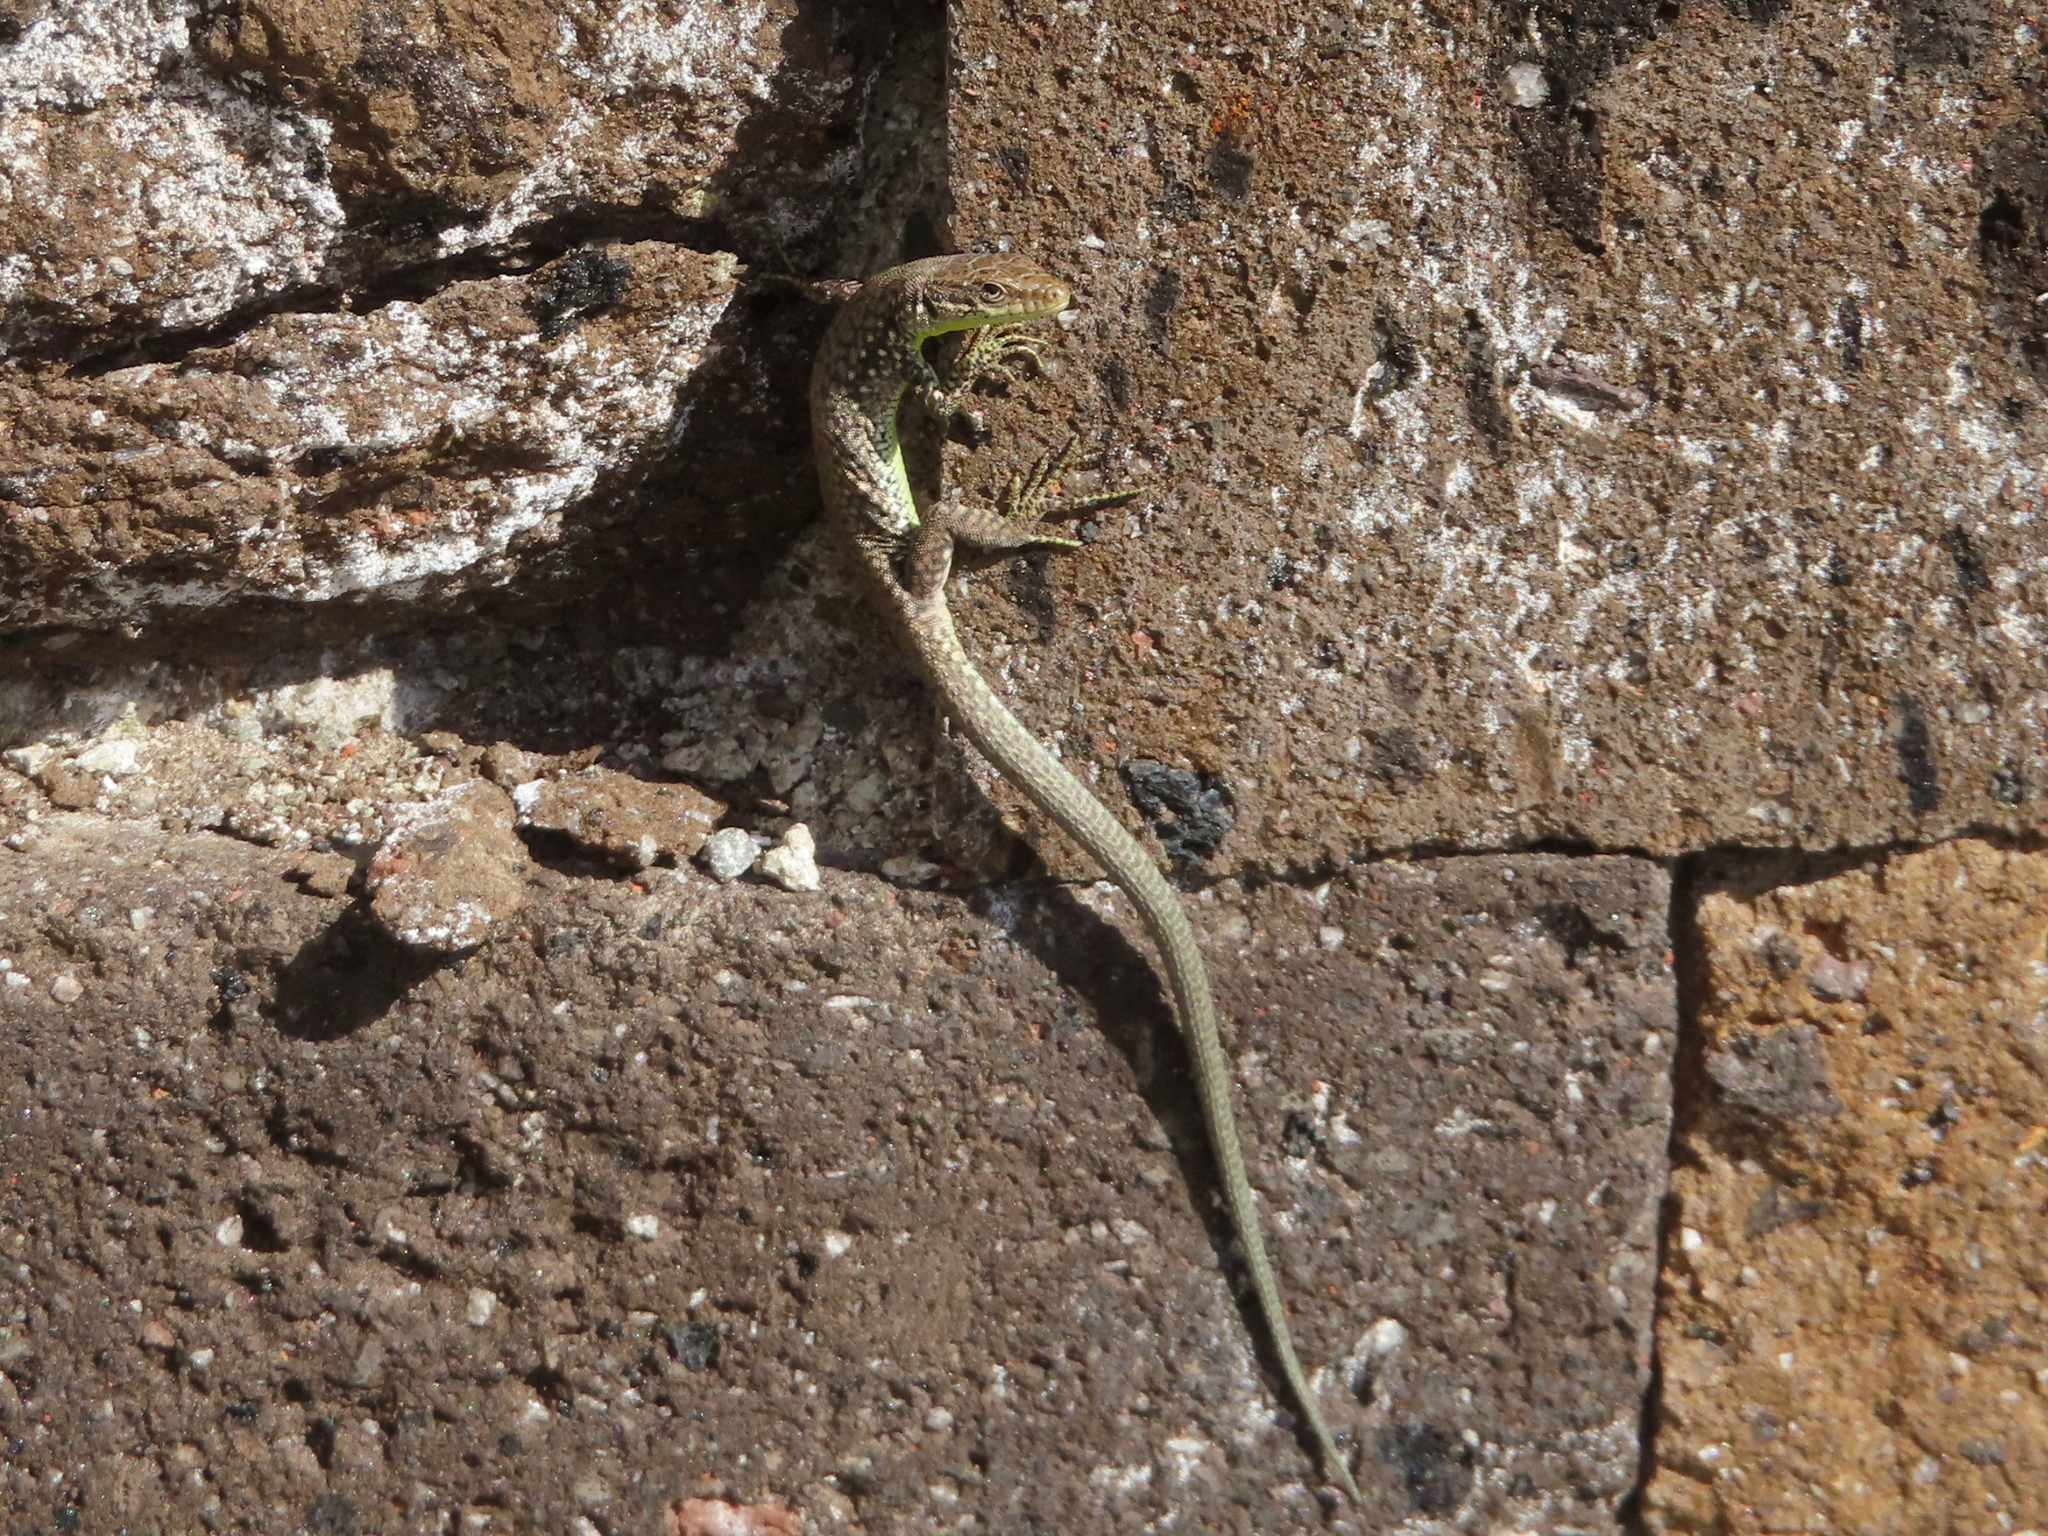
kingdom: Animalia
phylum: Chordata
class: Squamata
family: Lacertidae
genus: Darevskia
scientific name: Darevskia
